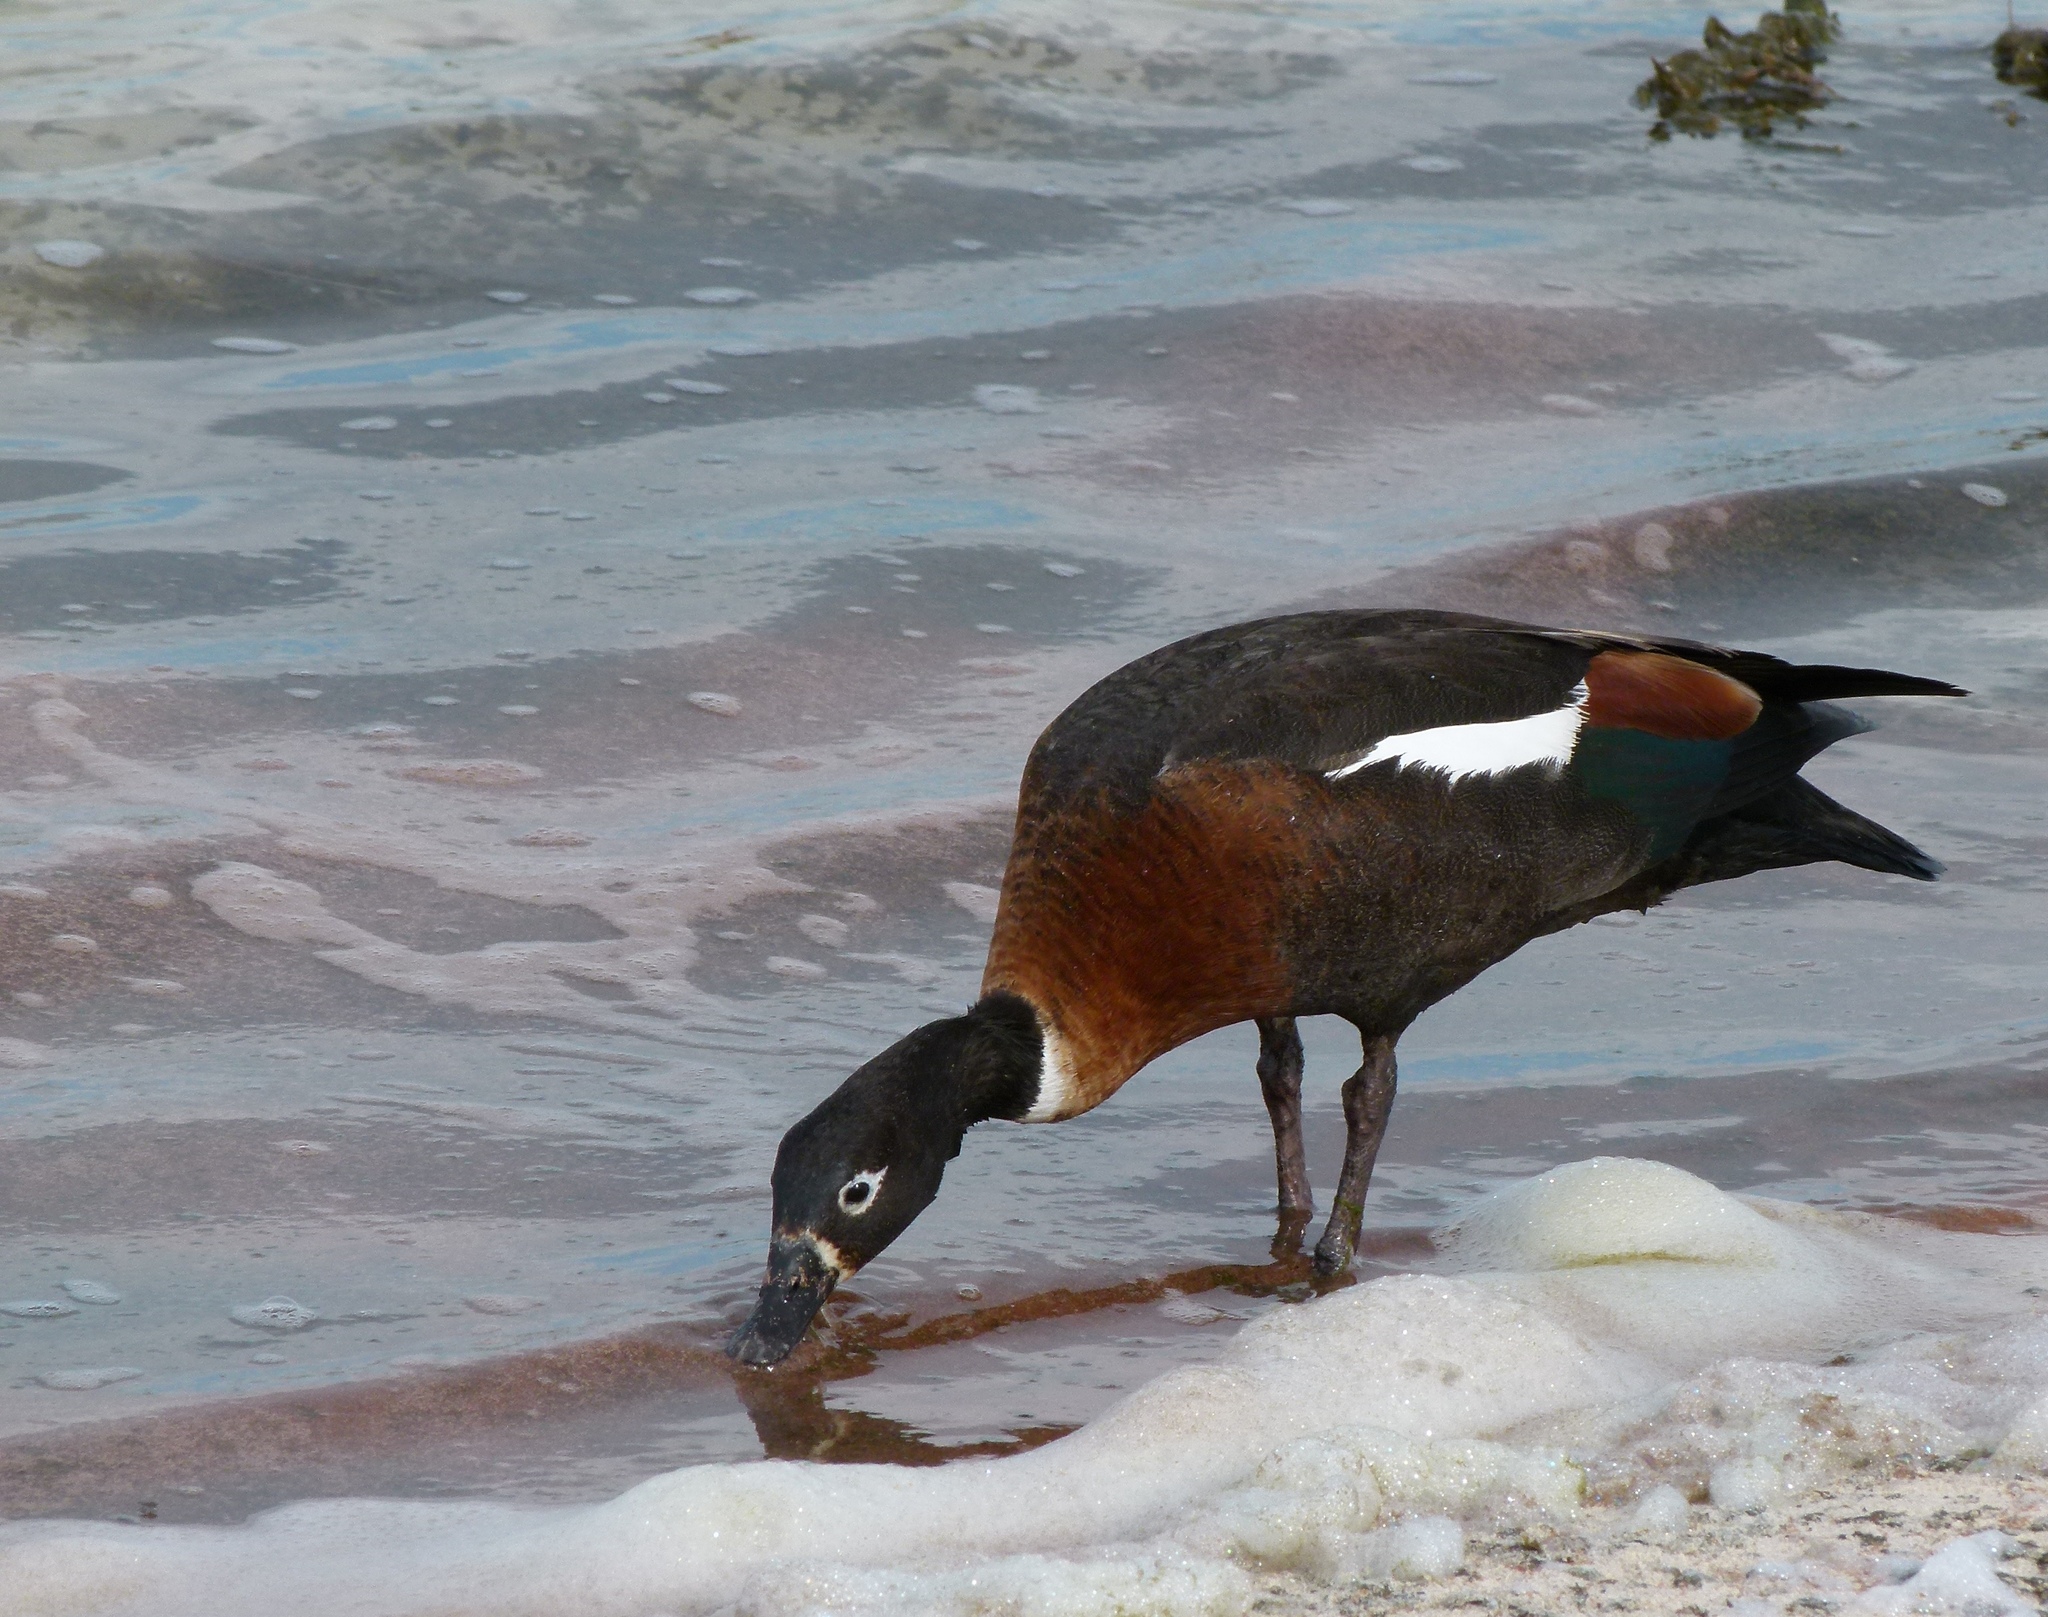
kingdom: Animalia
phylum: Chordata
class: Aves
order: Anseriformes
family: Anatidae
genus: Tadorna
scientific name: Tadorna tadornoides
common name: Australian shelduck
